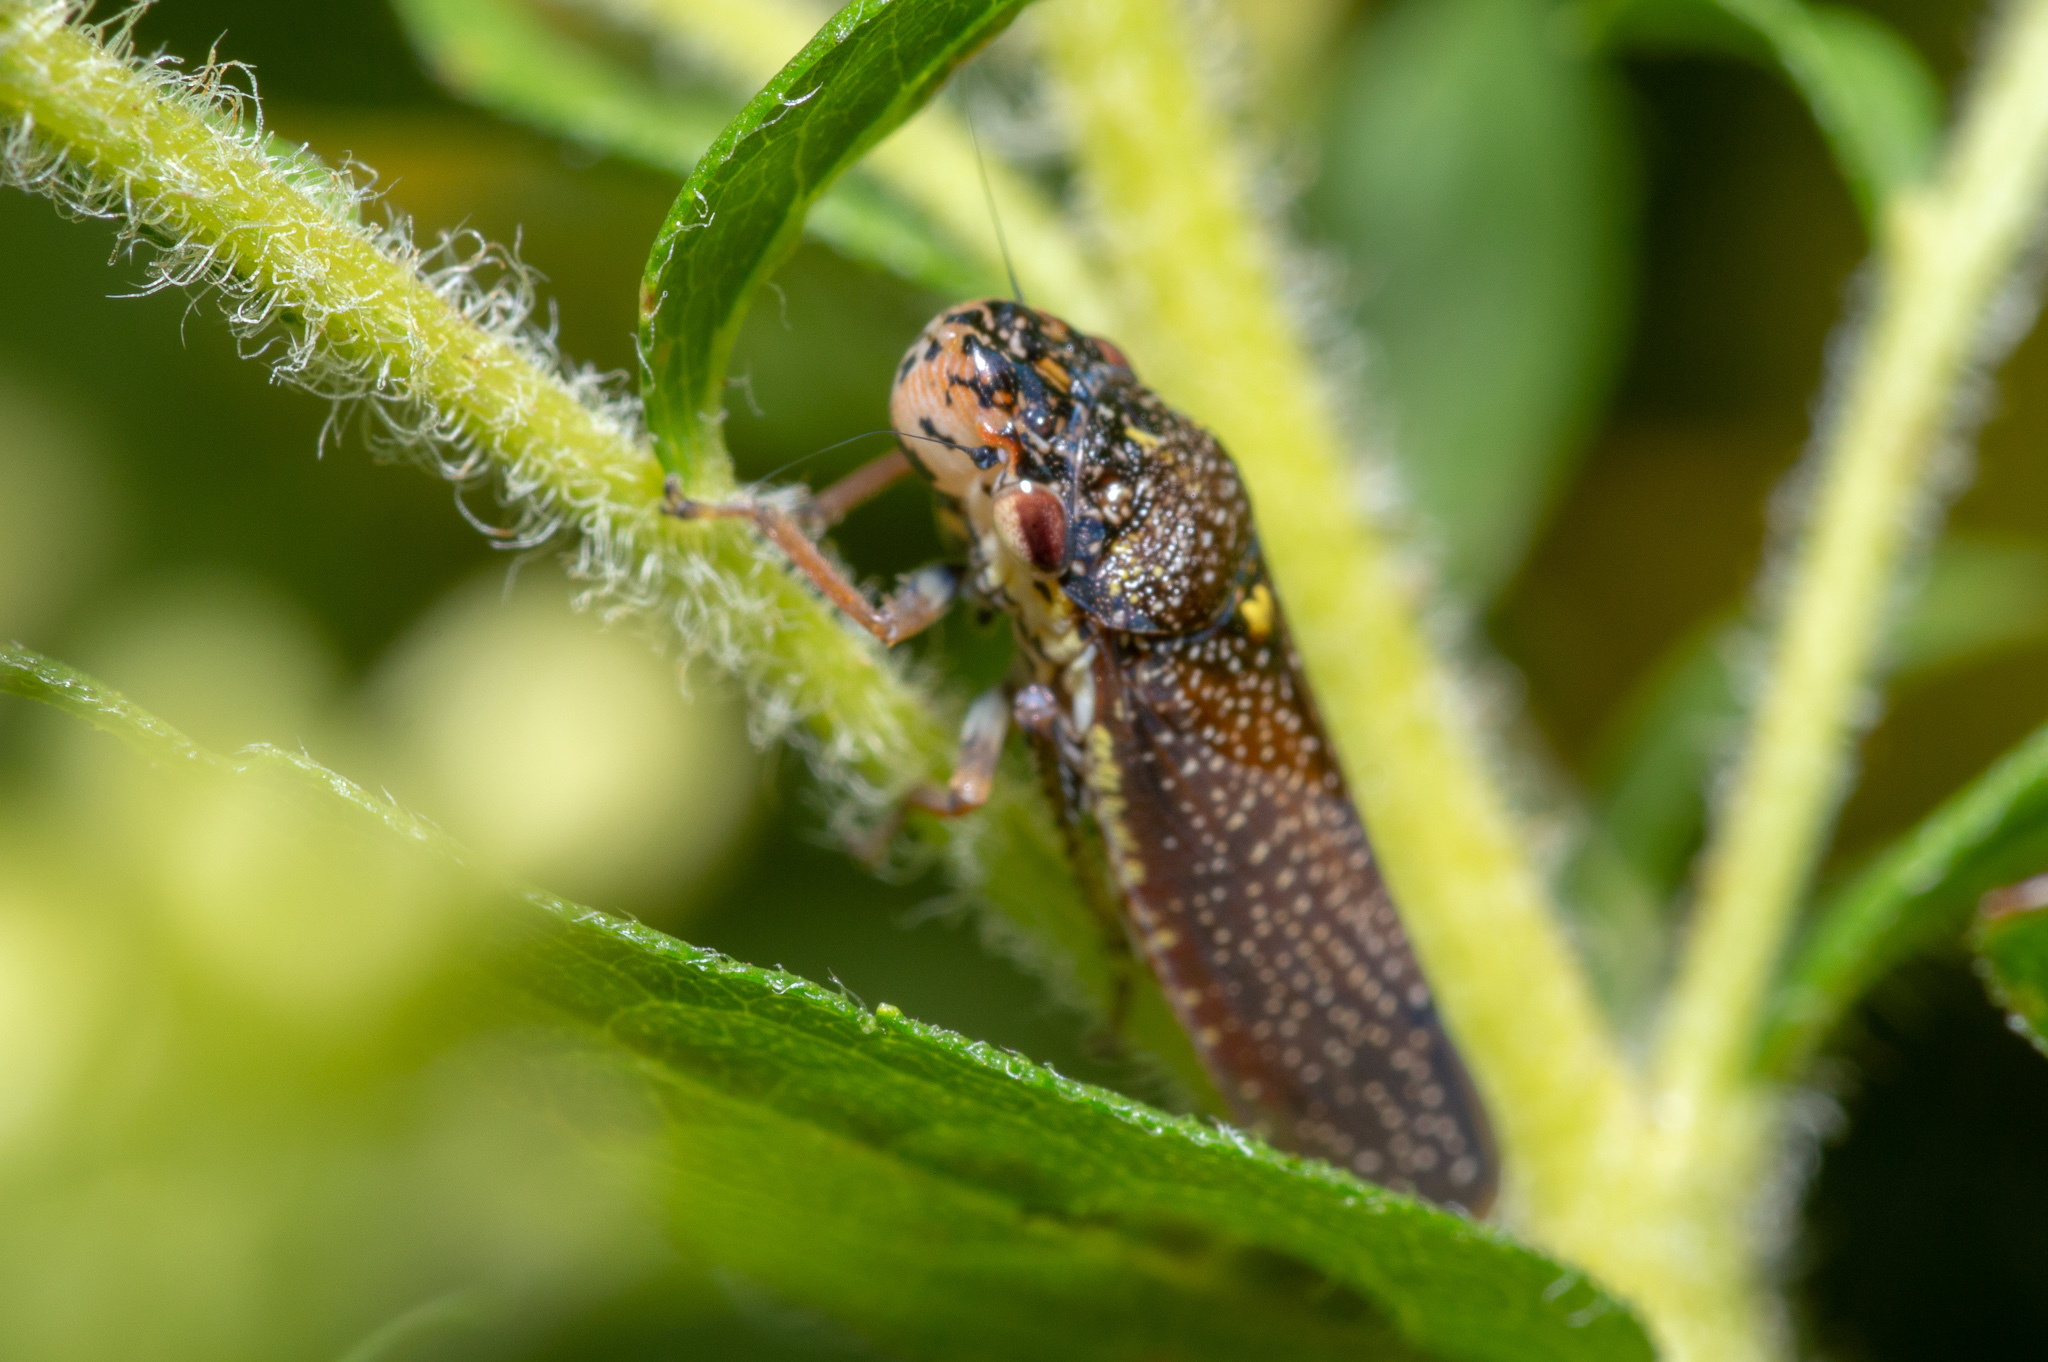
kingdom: Animalia
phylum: Arthropoda
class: Insecta
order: Hemiptera
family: Cicadellidae
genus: Paraulacizes
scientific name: Paraulacizes irrorata
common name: Speckled sharpshooter
